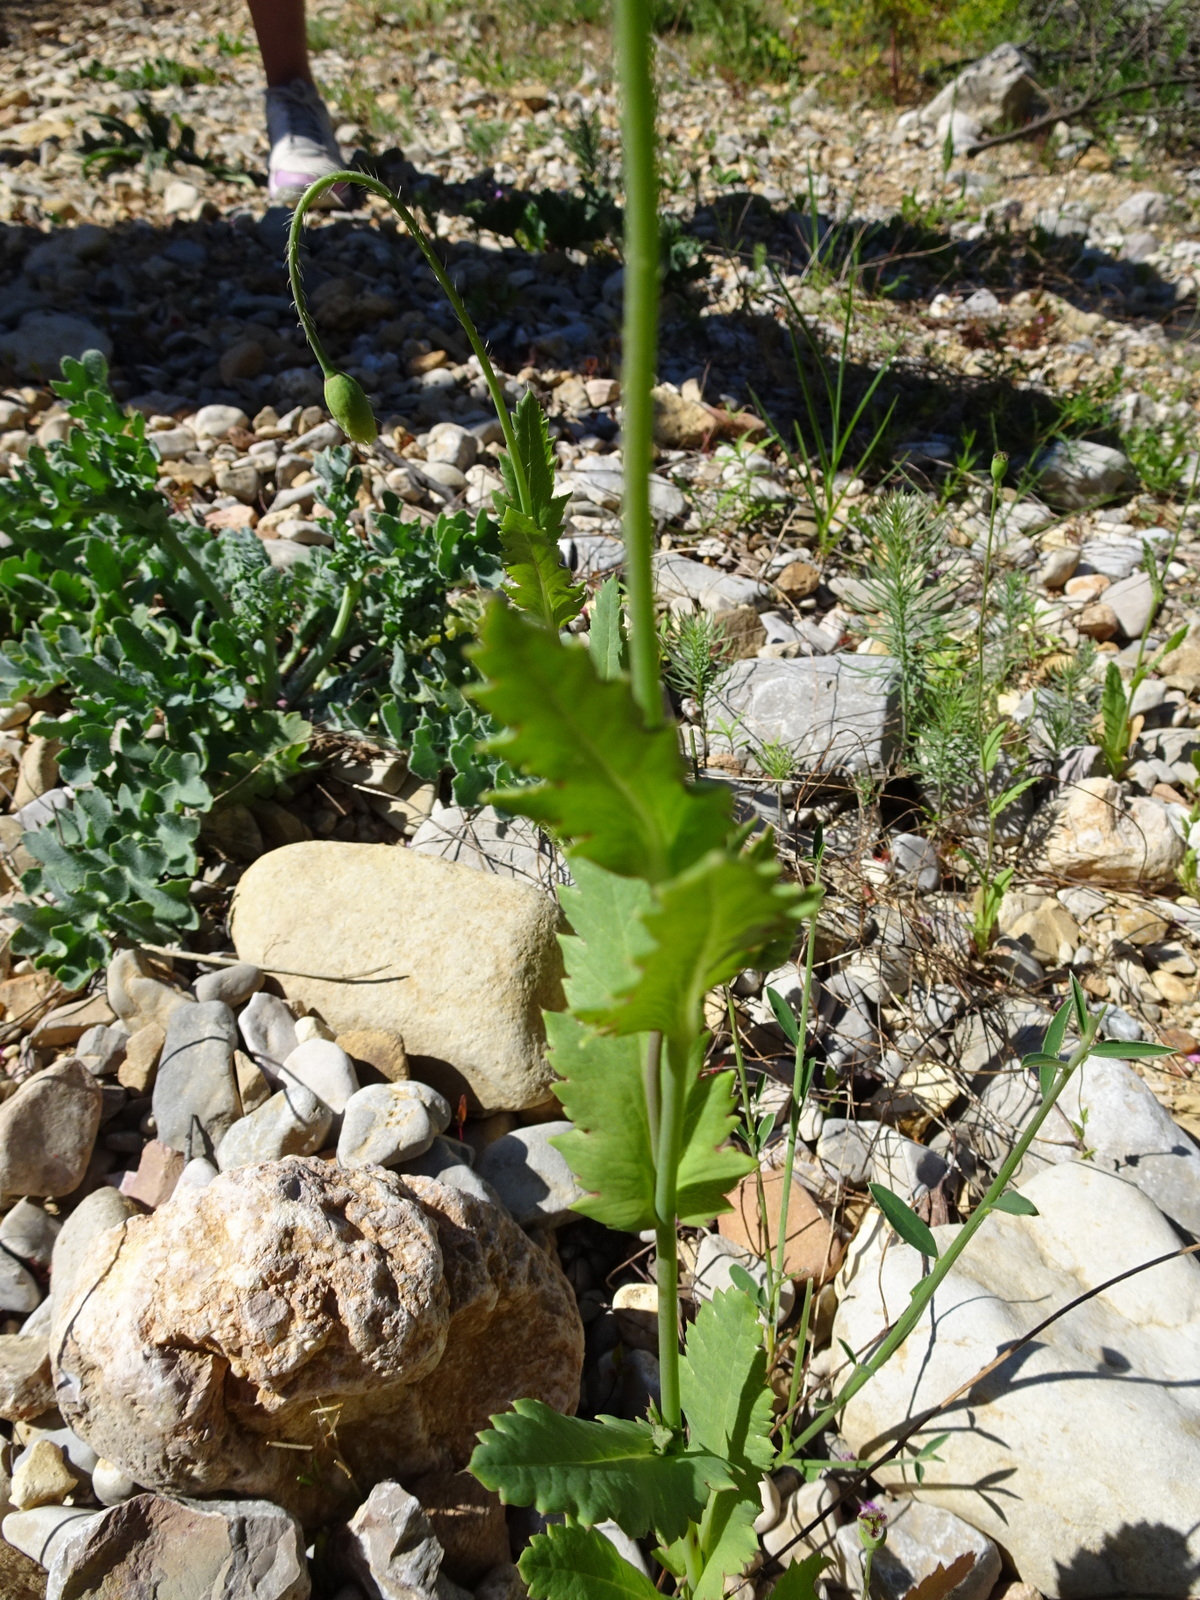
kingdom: Plantae
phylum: Tracheophyta
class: Magnoliopsida
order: Ranunculales
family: Papaveraceae
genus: Papaver
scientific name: Papaver somniferum
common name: Opium poppy
